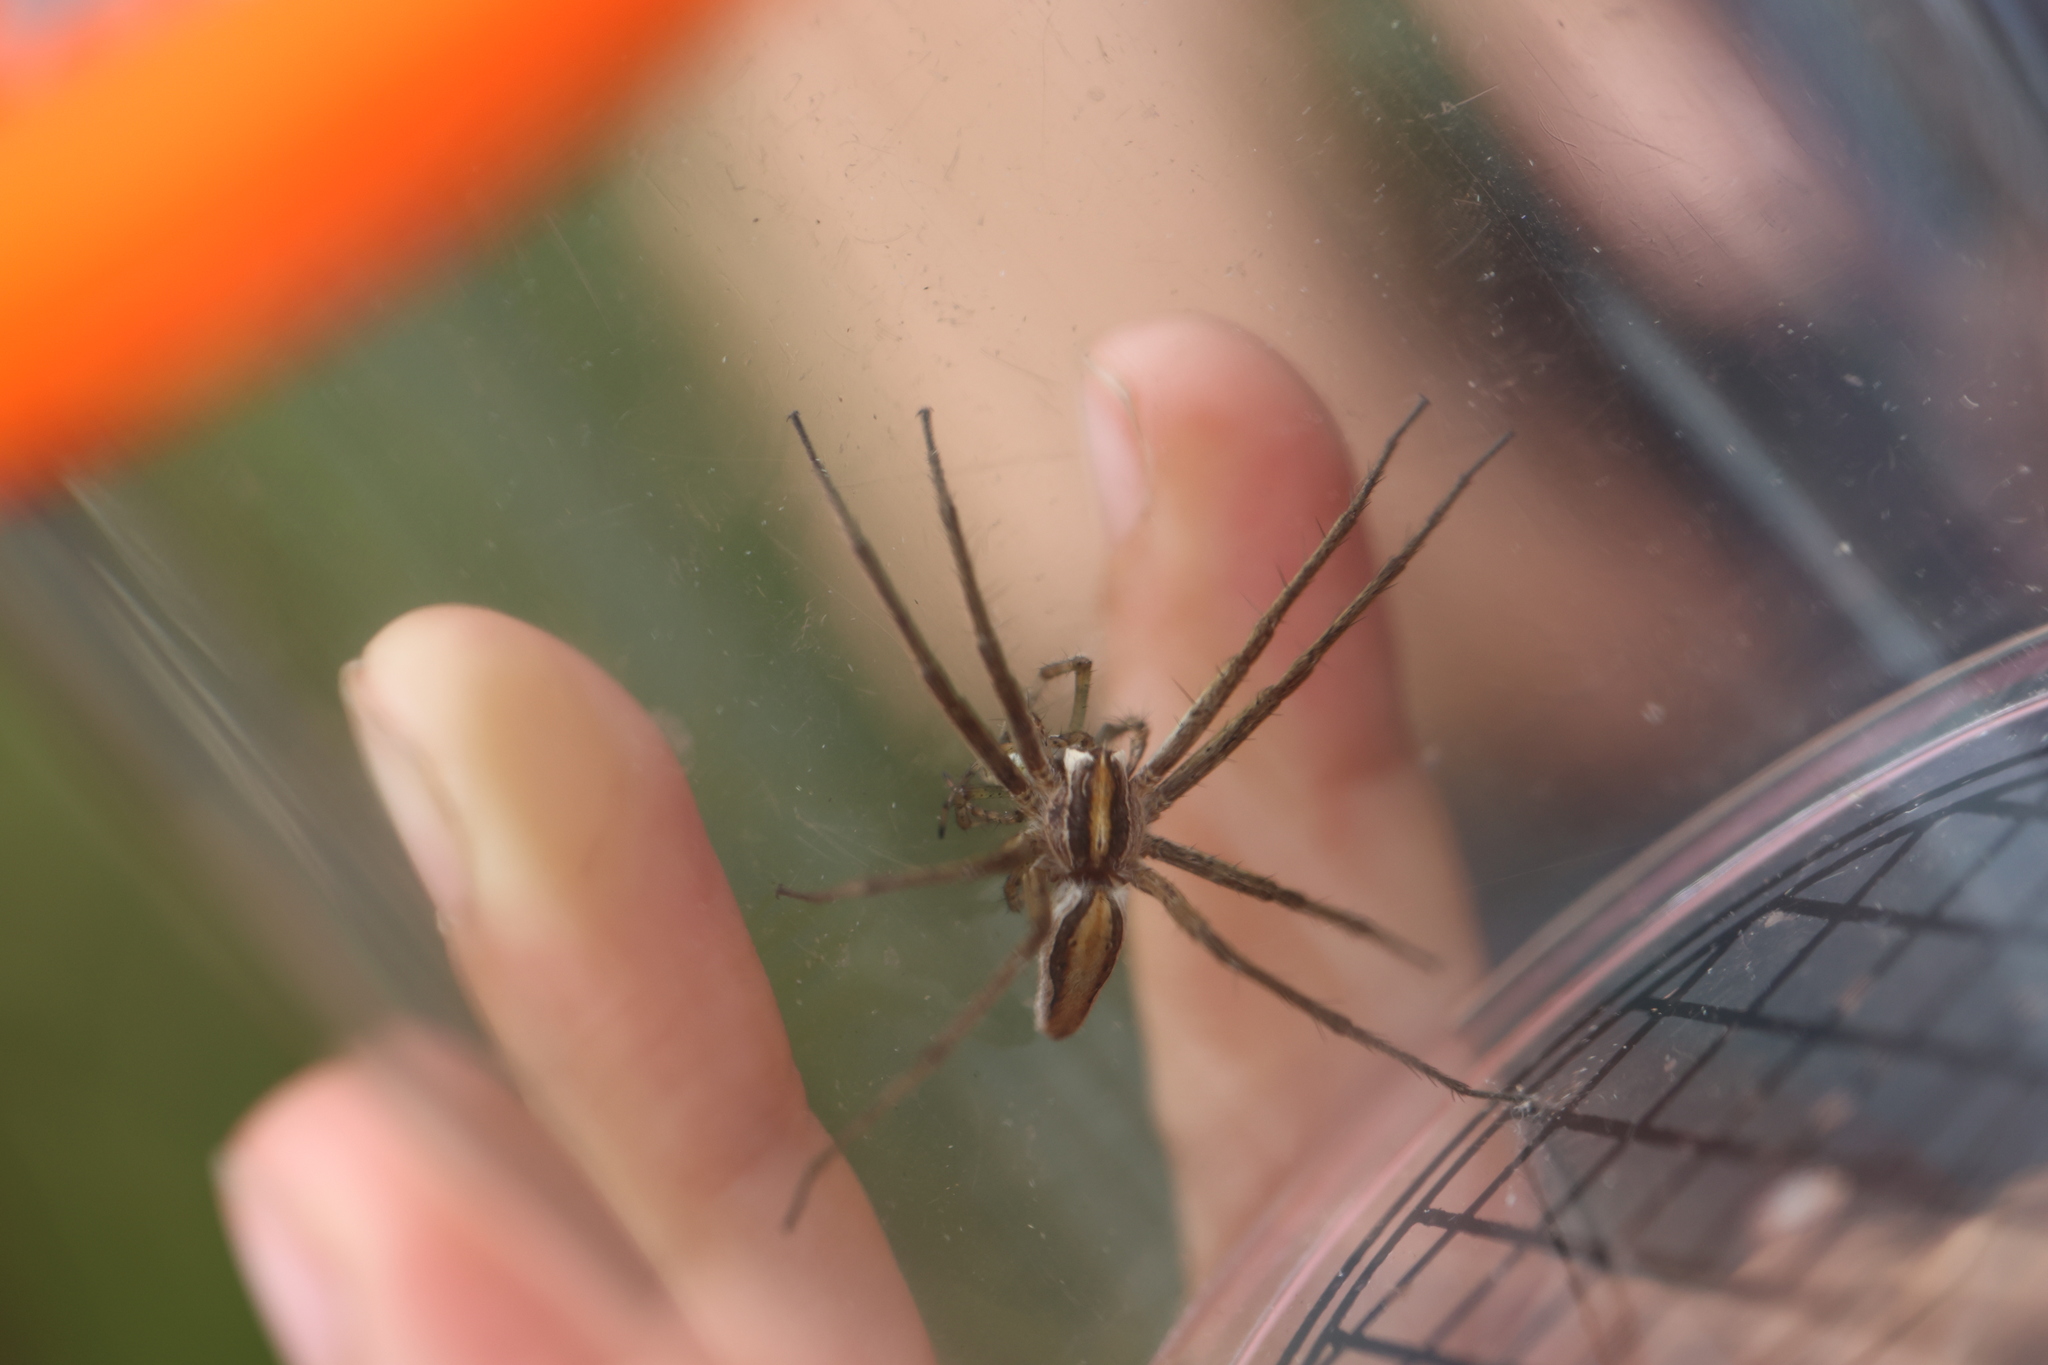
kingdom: Animalia
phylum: Arthropoda
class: Arachnida
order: Araneae
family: Pisauridae
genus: Pisaura
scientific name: Pisaura mirabilis
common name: Tent spider
